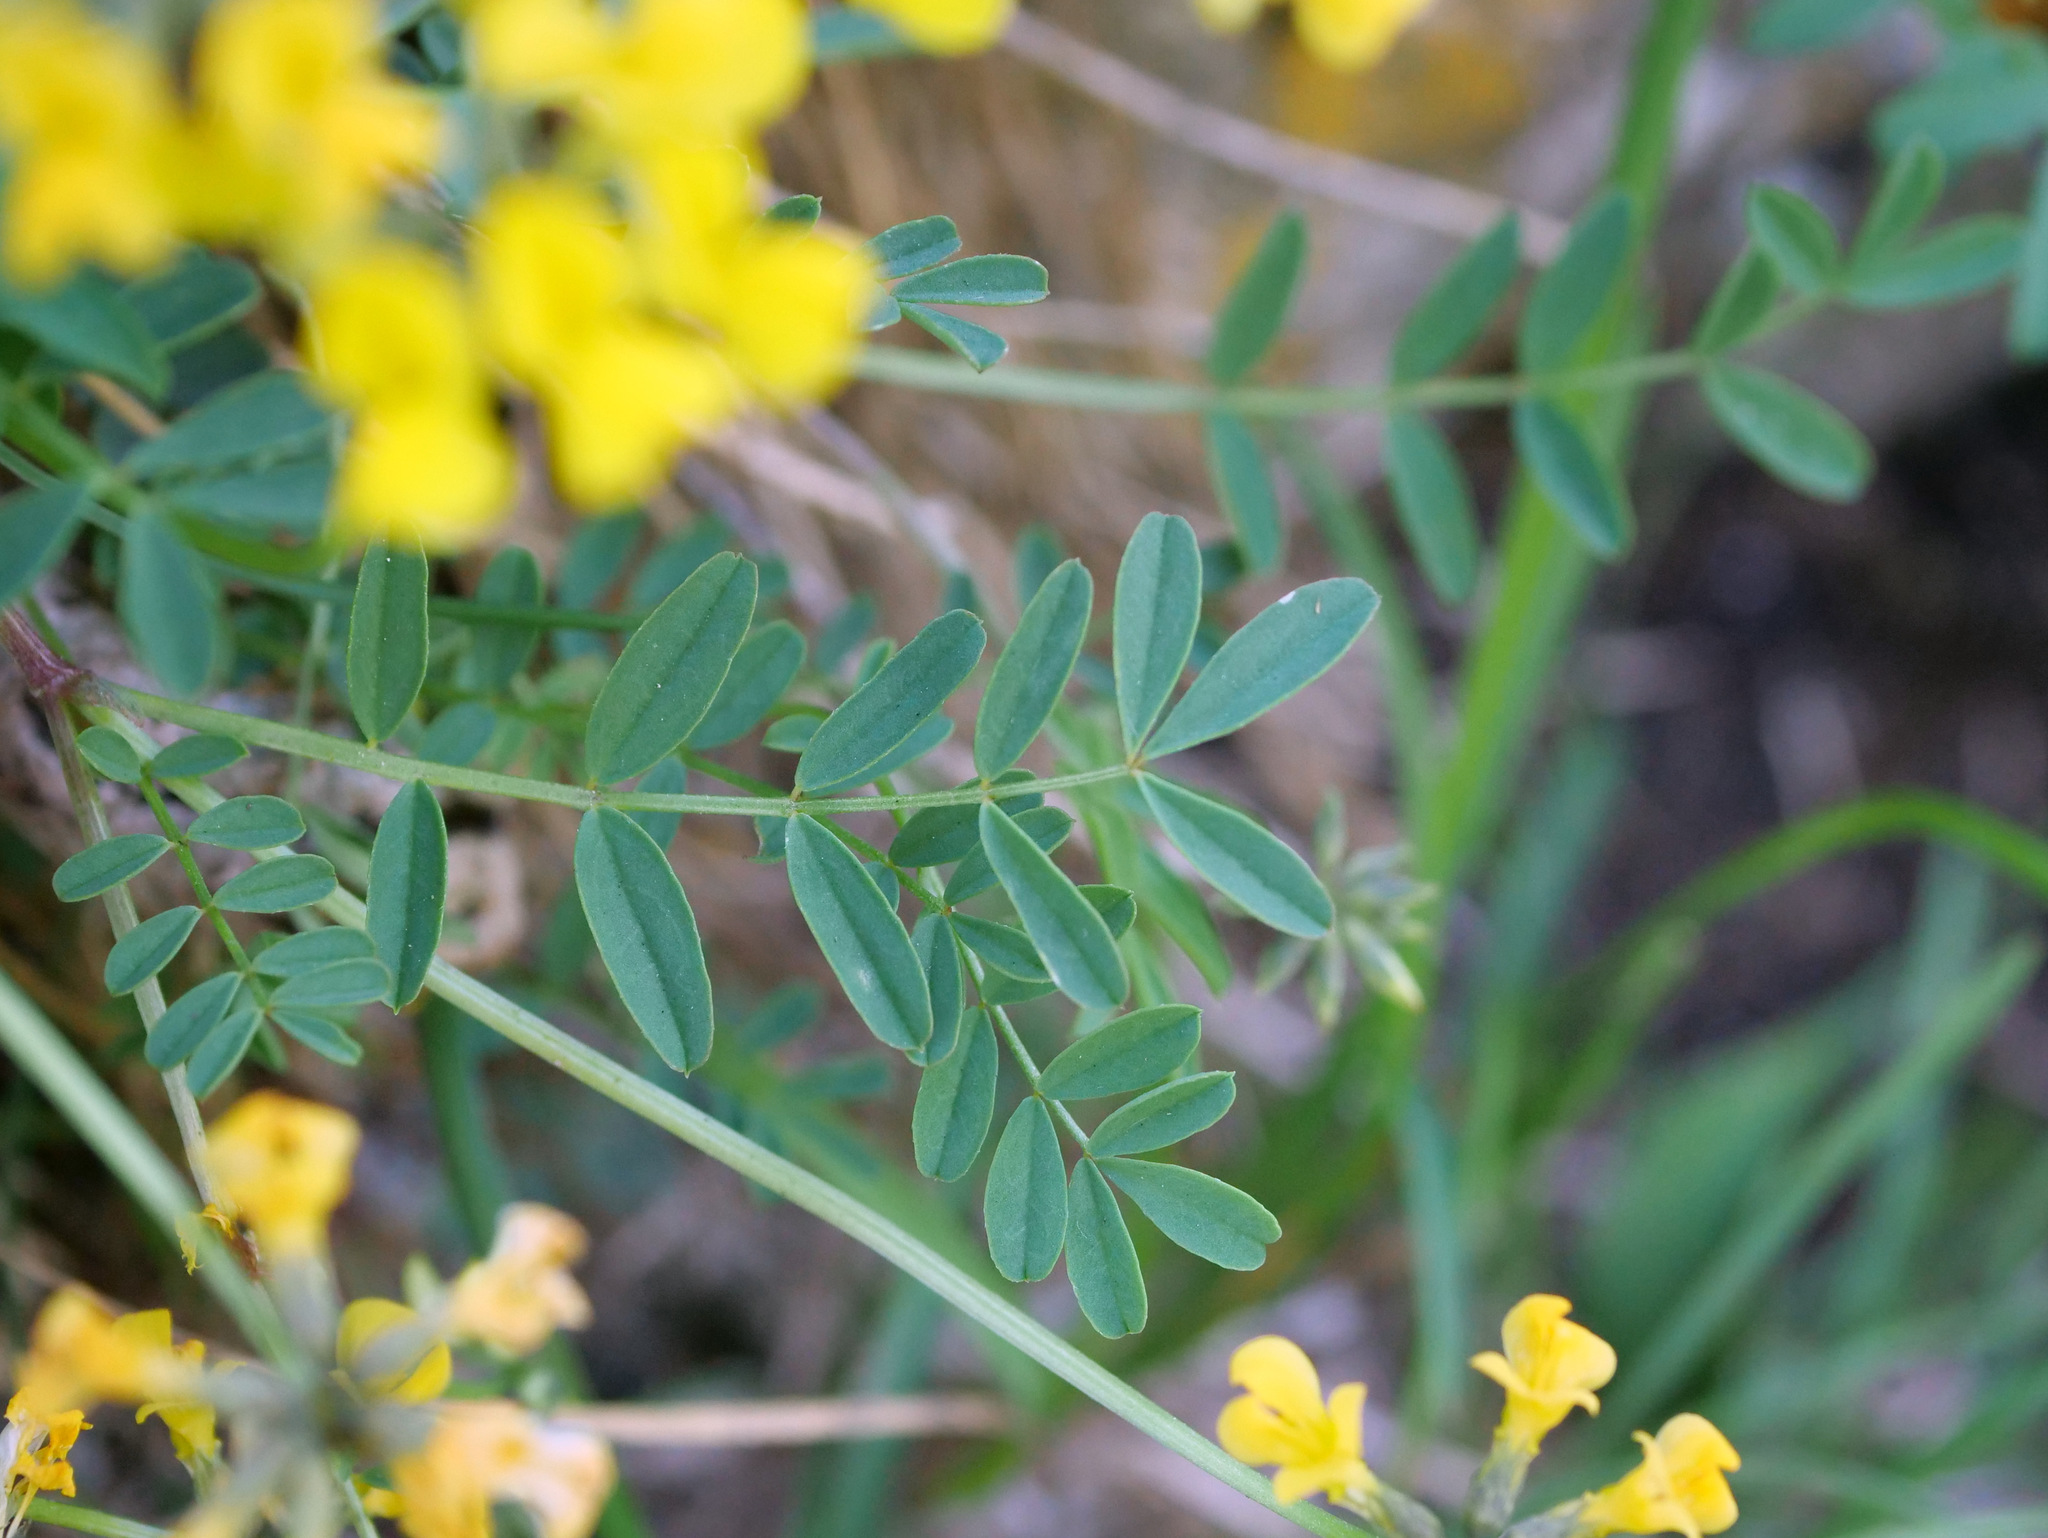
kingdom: Plantae
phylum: Tracheophyta
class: Magnoliopsida
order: Fabales
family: Fabaceae
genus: Hippocrepis
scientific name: Hippocrepis comosa
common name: Horseshoe vetch
